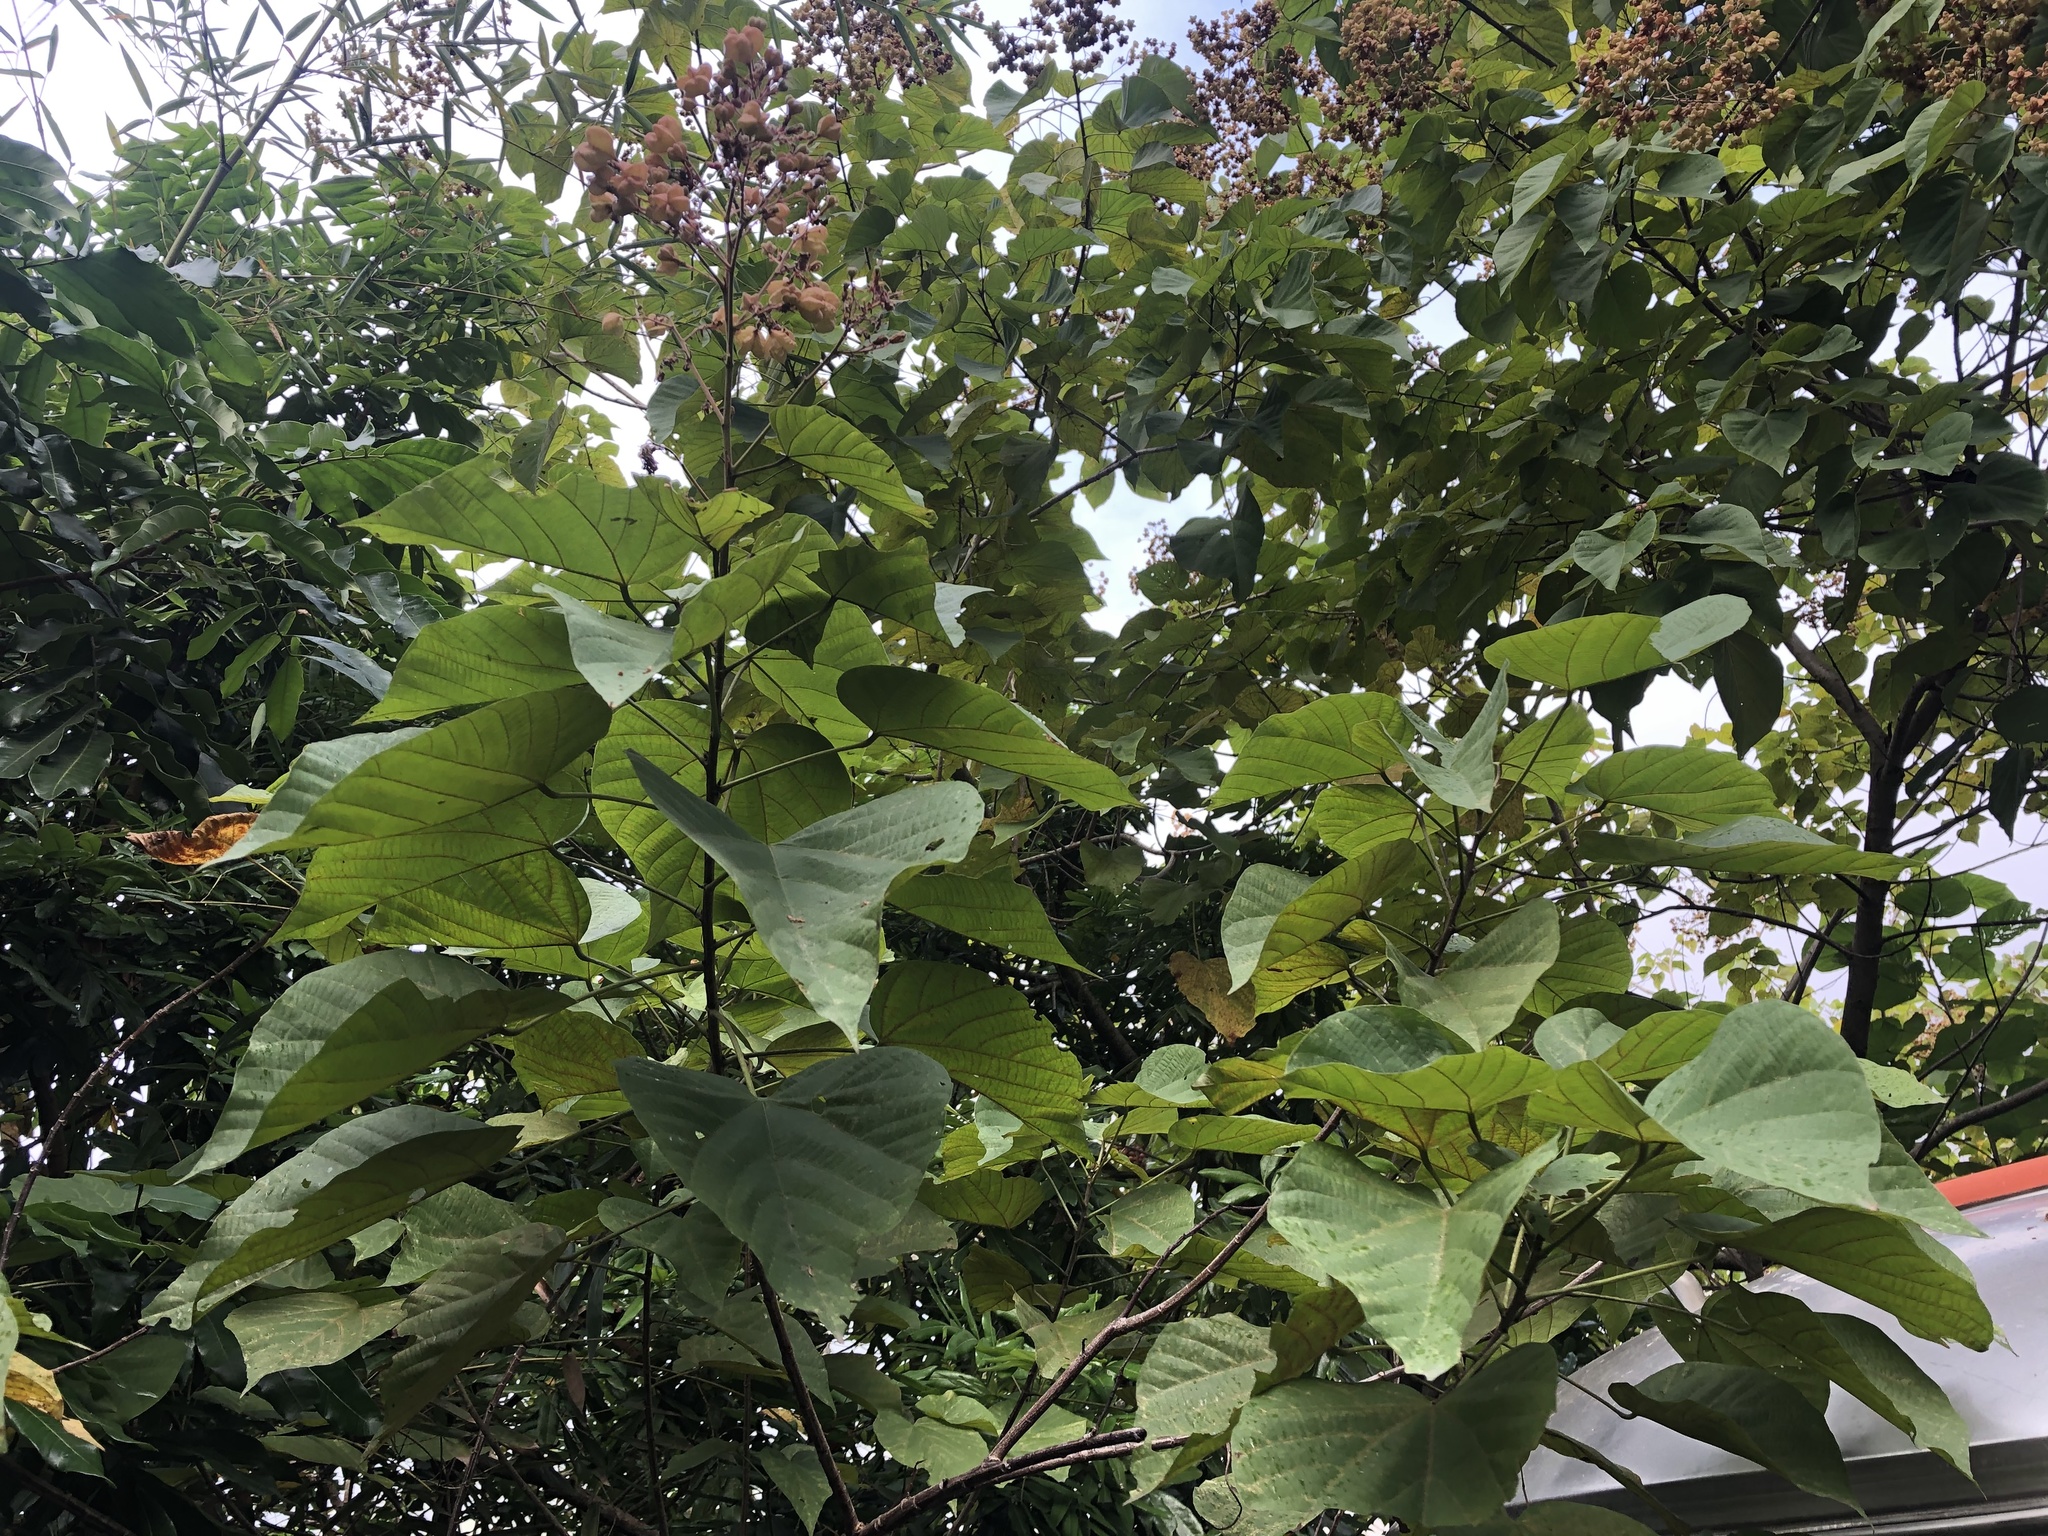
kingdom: Plantae
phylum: Tracheophyta
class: Magnoliopsida
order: Malvales
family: Malvaceae
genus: Kleinhovia
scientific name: Kleinhovia hospita
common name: Guest-tree
